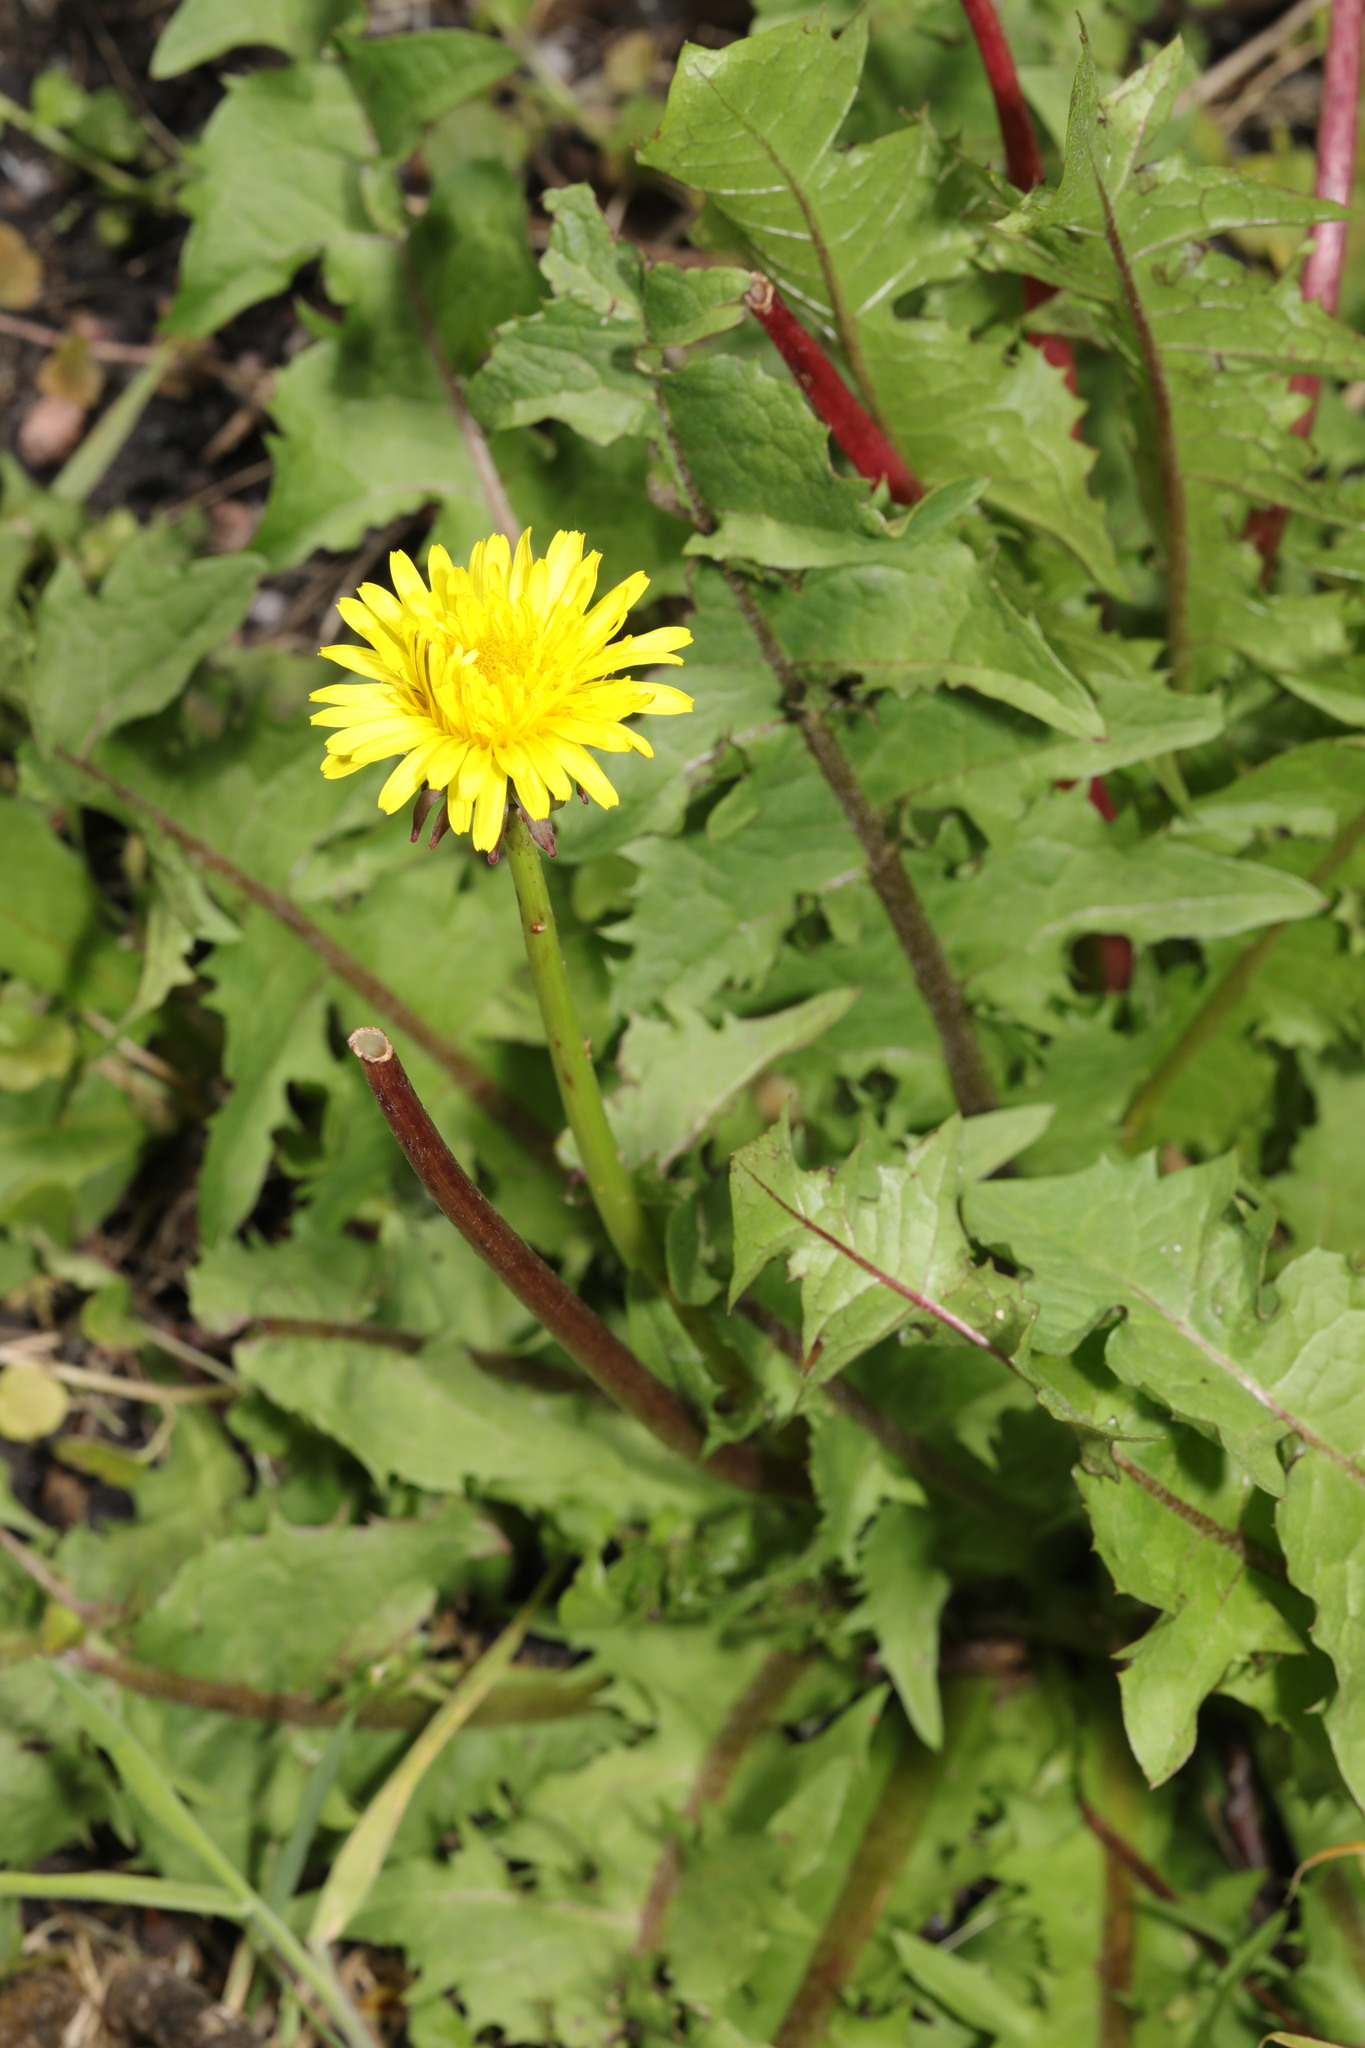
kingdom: Plantae
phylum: Tracheophyta
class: Magnoliopsida
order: Asterales
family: Asteraceae
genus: Taraxacum
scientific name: Taraxacum officinale
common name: Common dandelion
